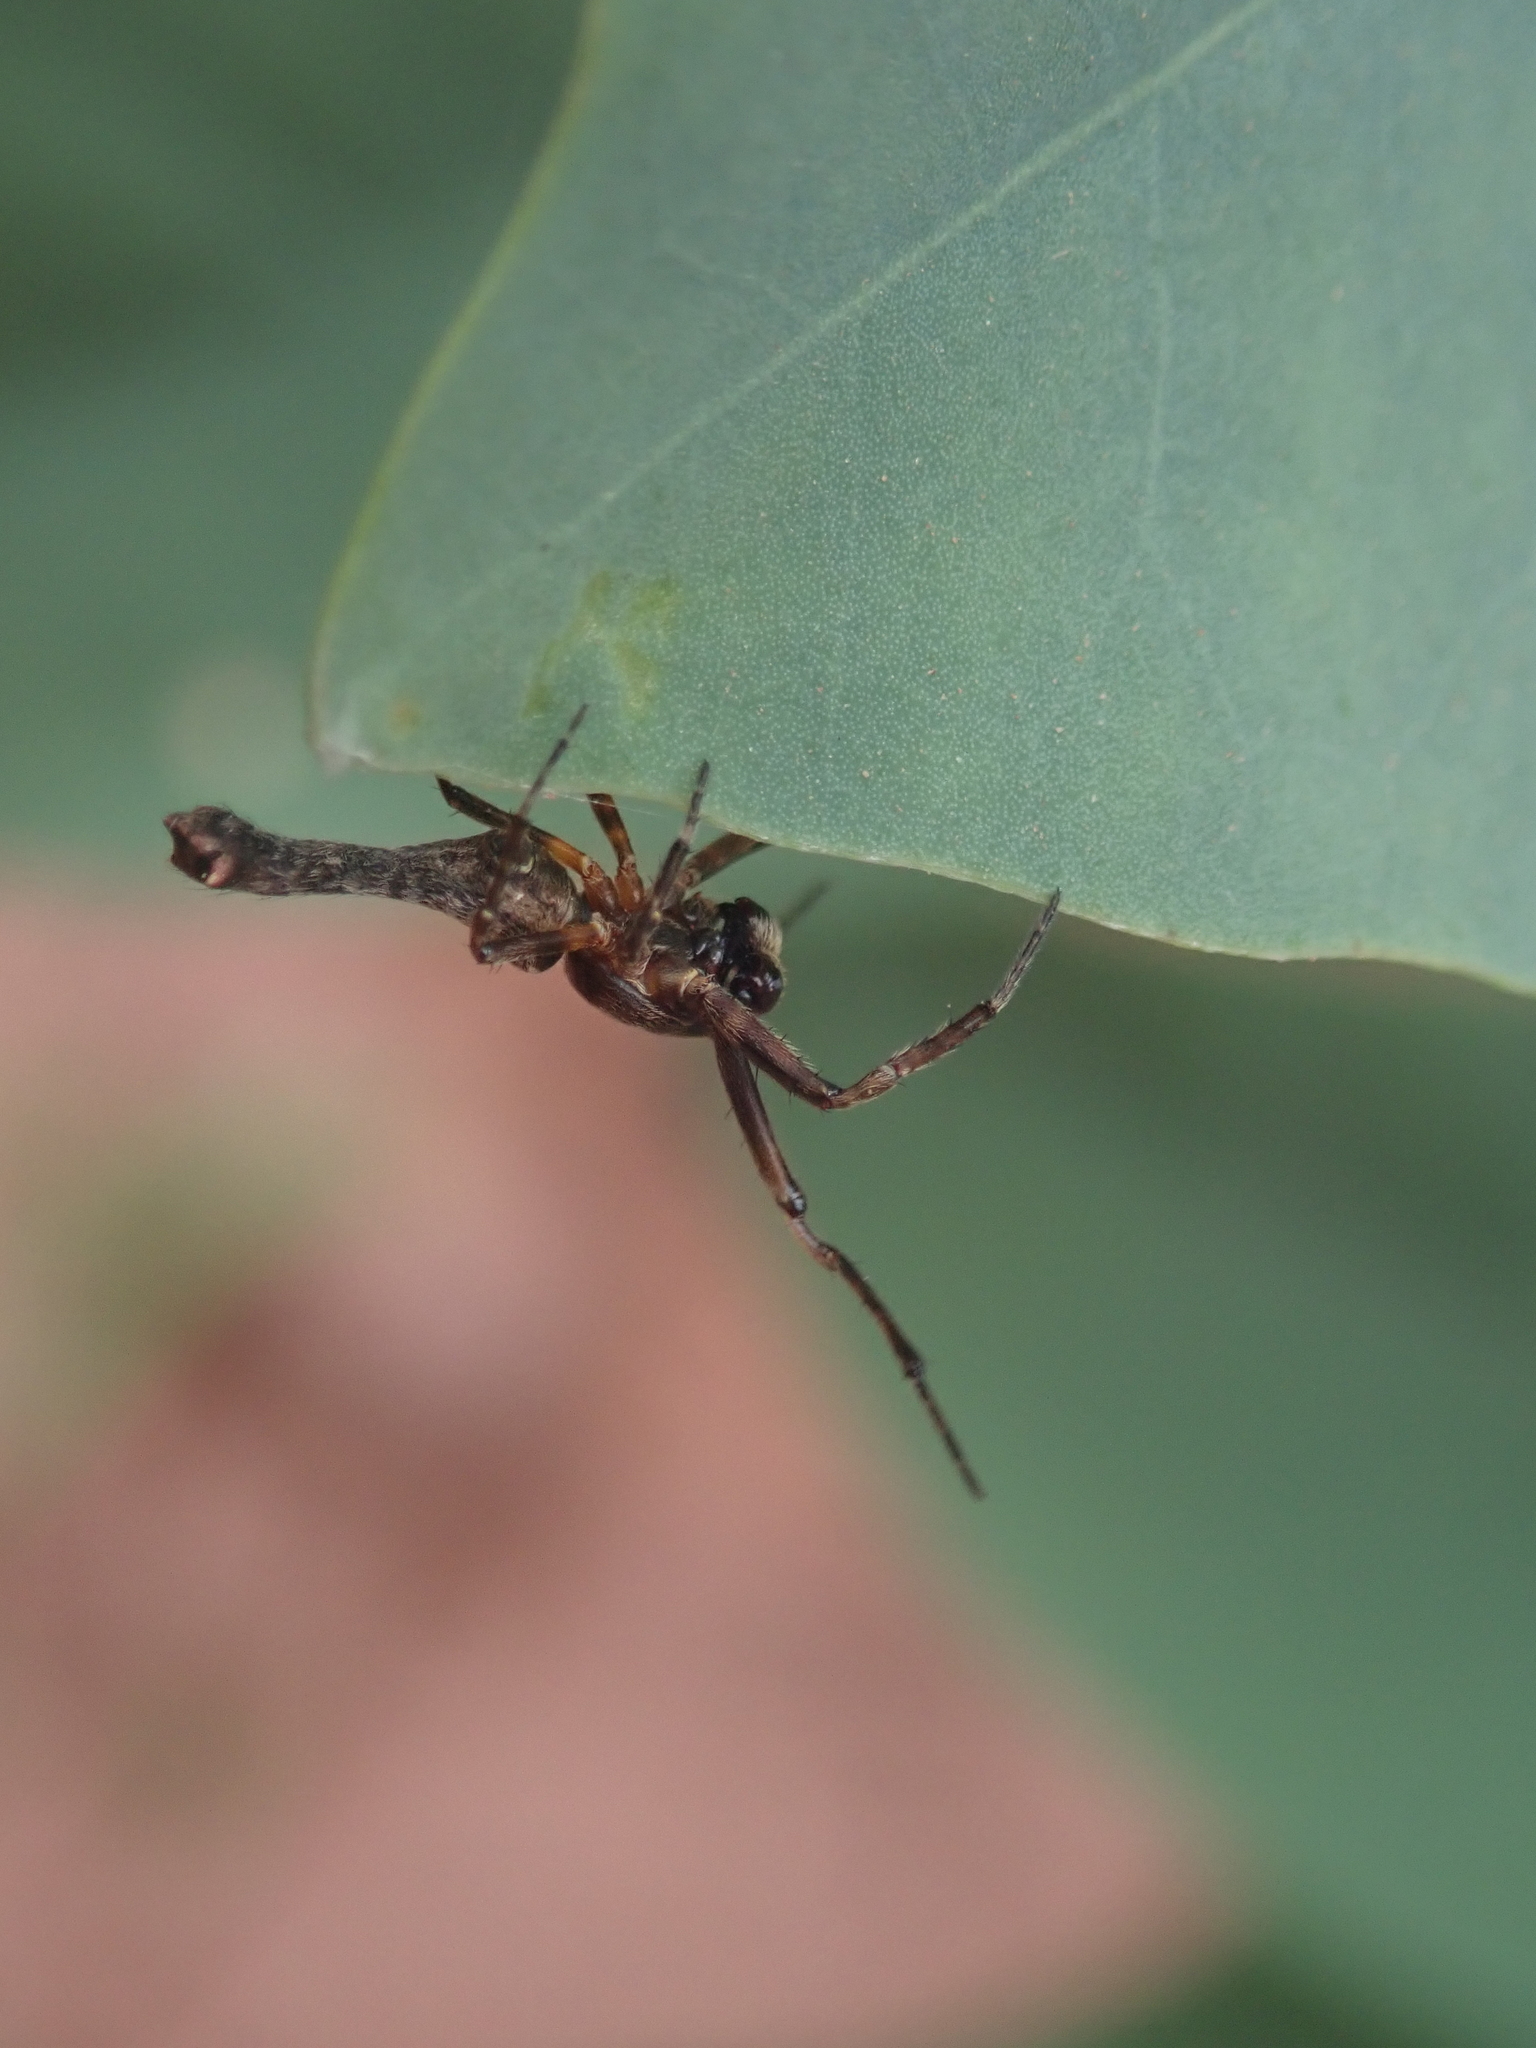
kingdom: Animalia
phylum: Arthropoda
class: Arachnida
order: Araneae
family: Araneidae
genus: Paraverrucosa
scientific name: Paraverrucosa neglecta
